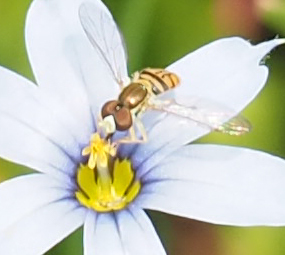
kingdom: Animalia
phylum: Arthropoda
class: Insecta
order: Diptera
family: Syrphidae
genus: Toxomerus
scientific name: Toxomerus marginatus
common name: Syrphid fly
